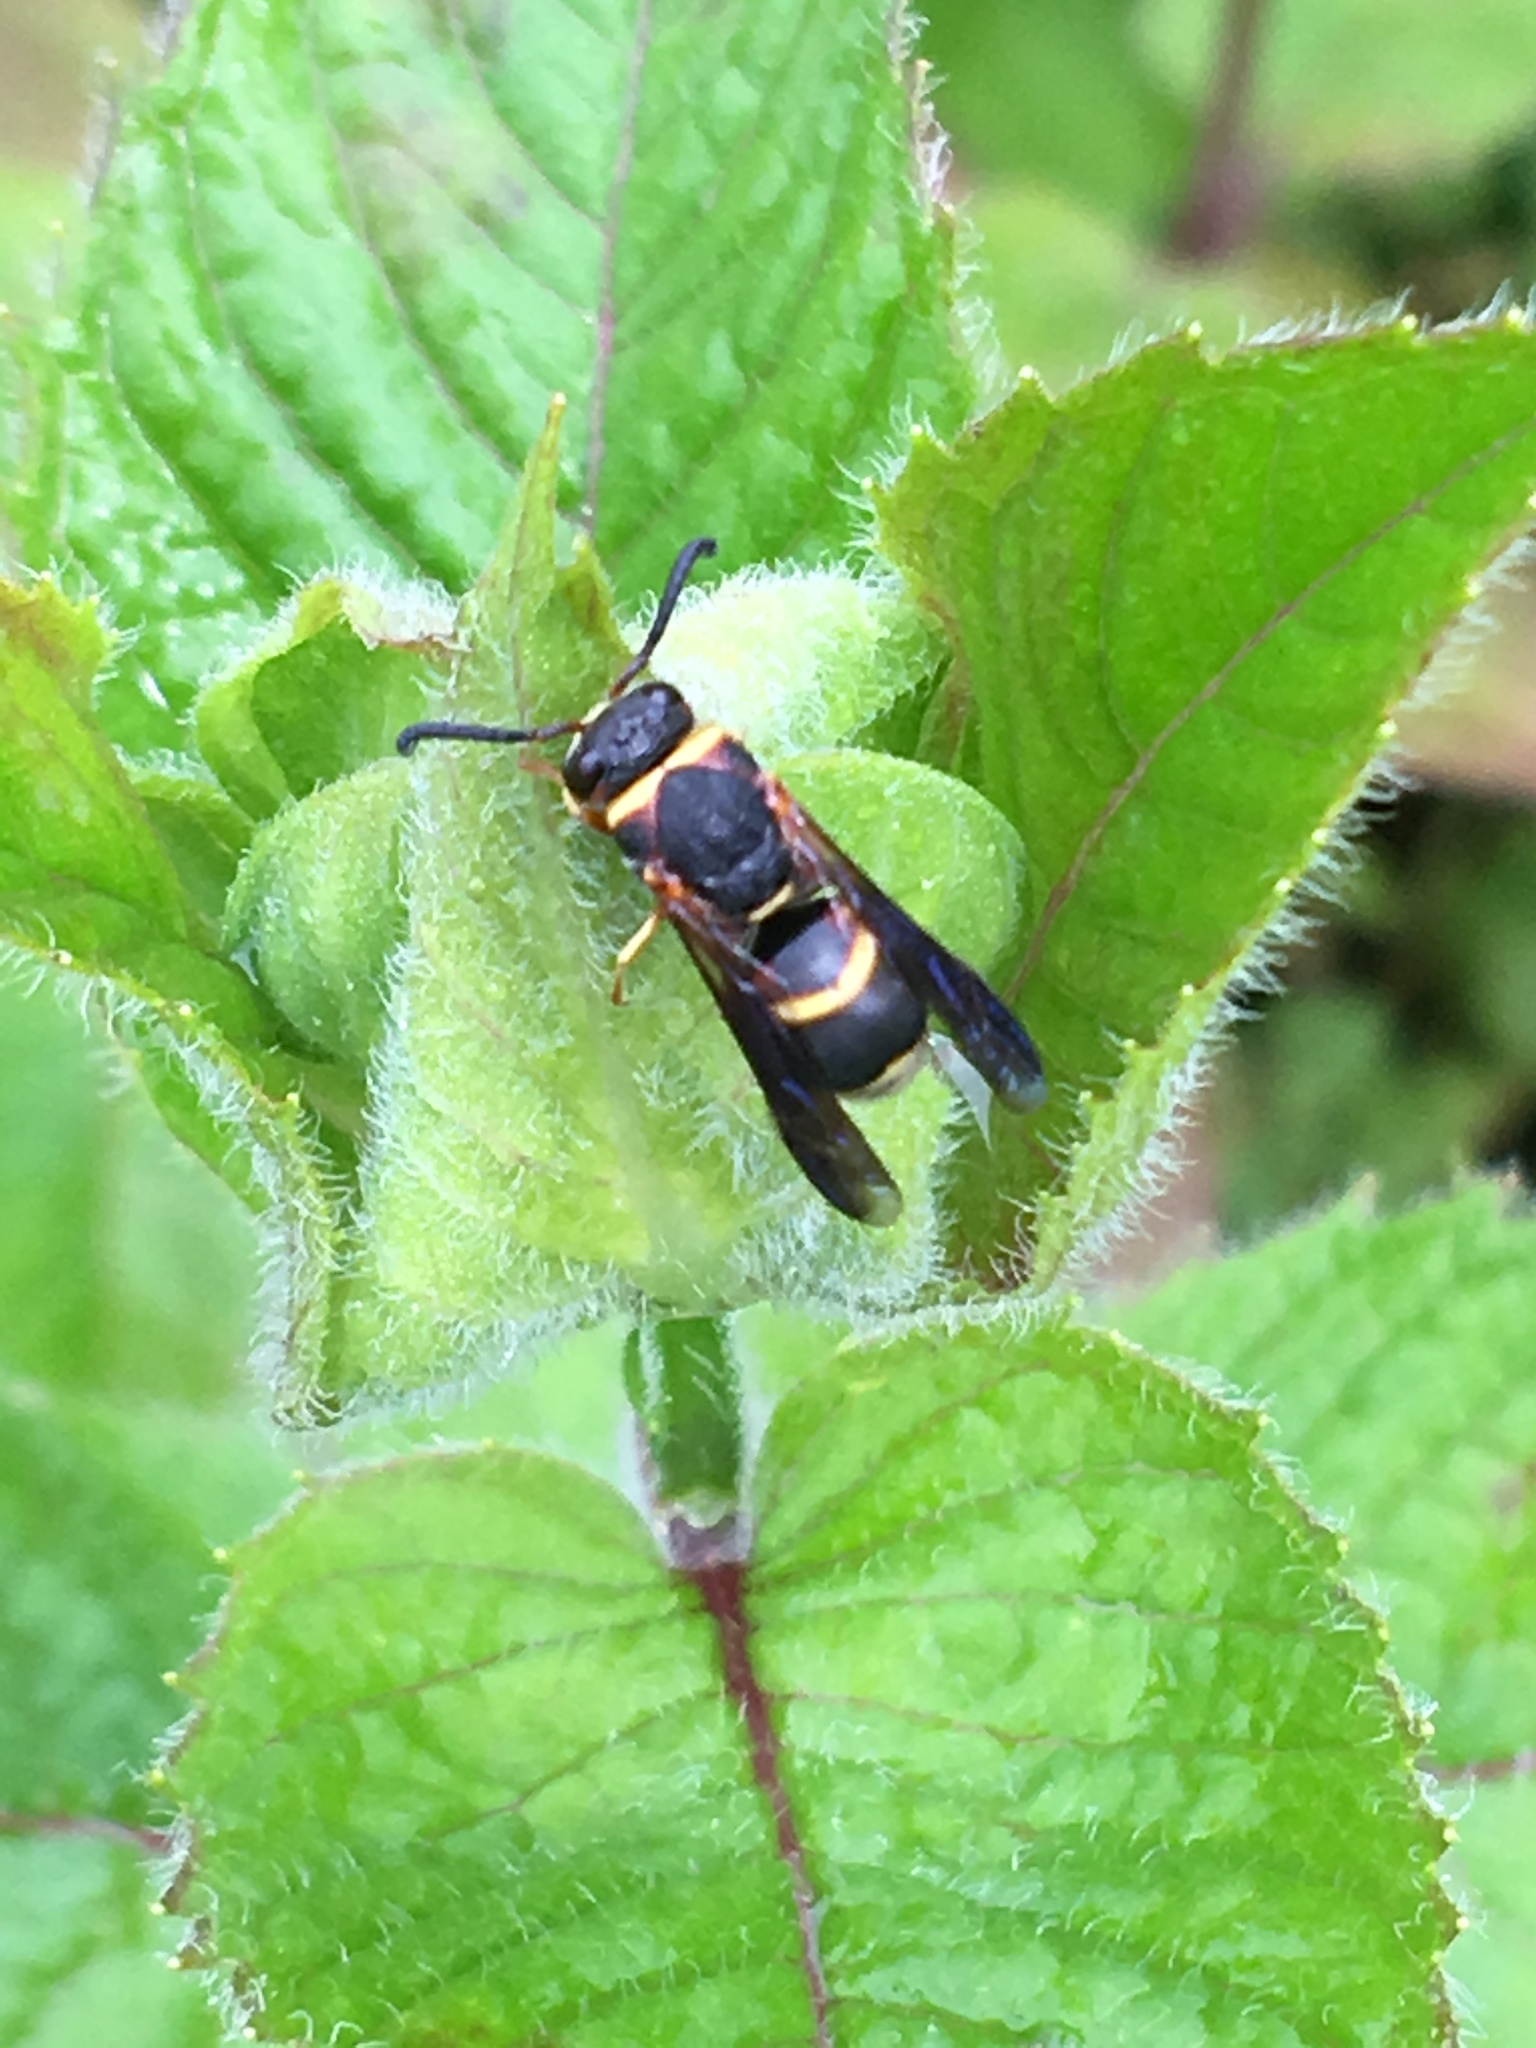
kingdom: Animalia
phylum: Arthropoda
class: Insecta
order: Hymenoptera
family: Eumenidae
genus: Euodynerus
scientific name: Euodynerus hidalgo
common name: Wasp
